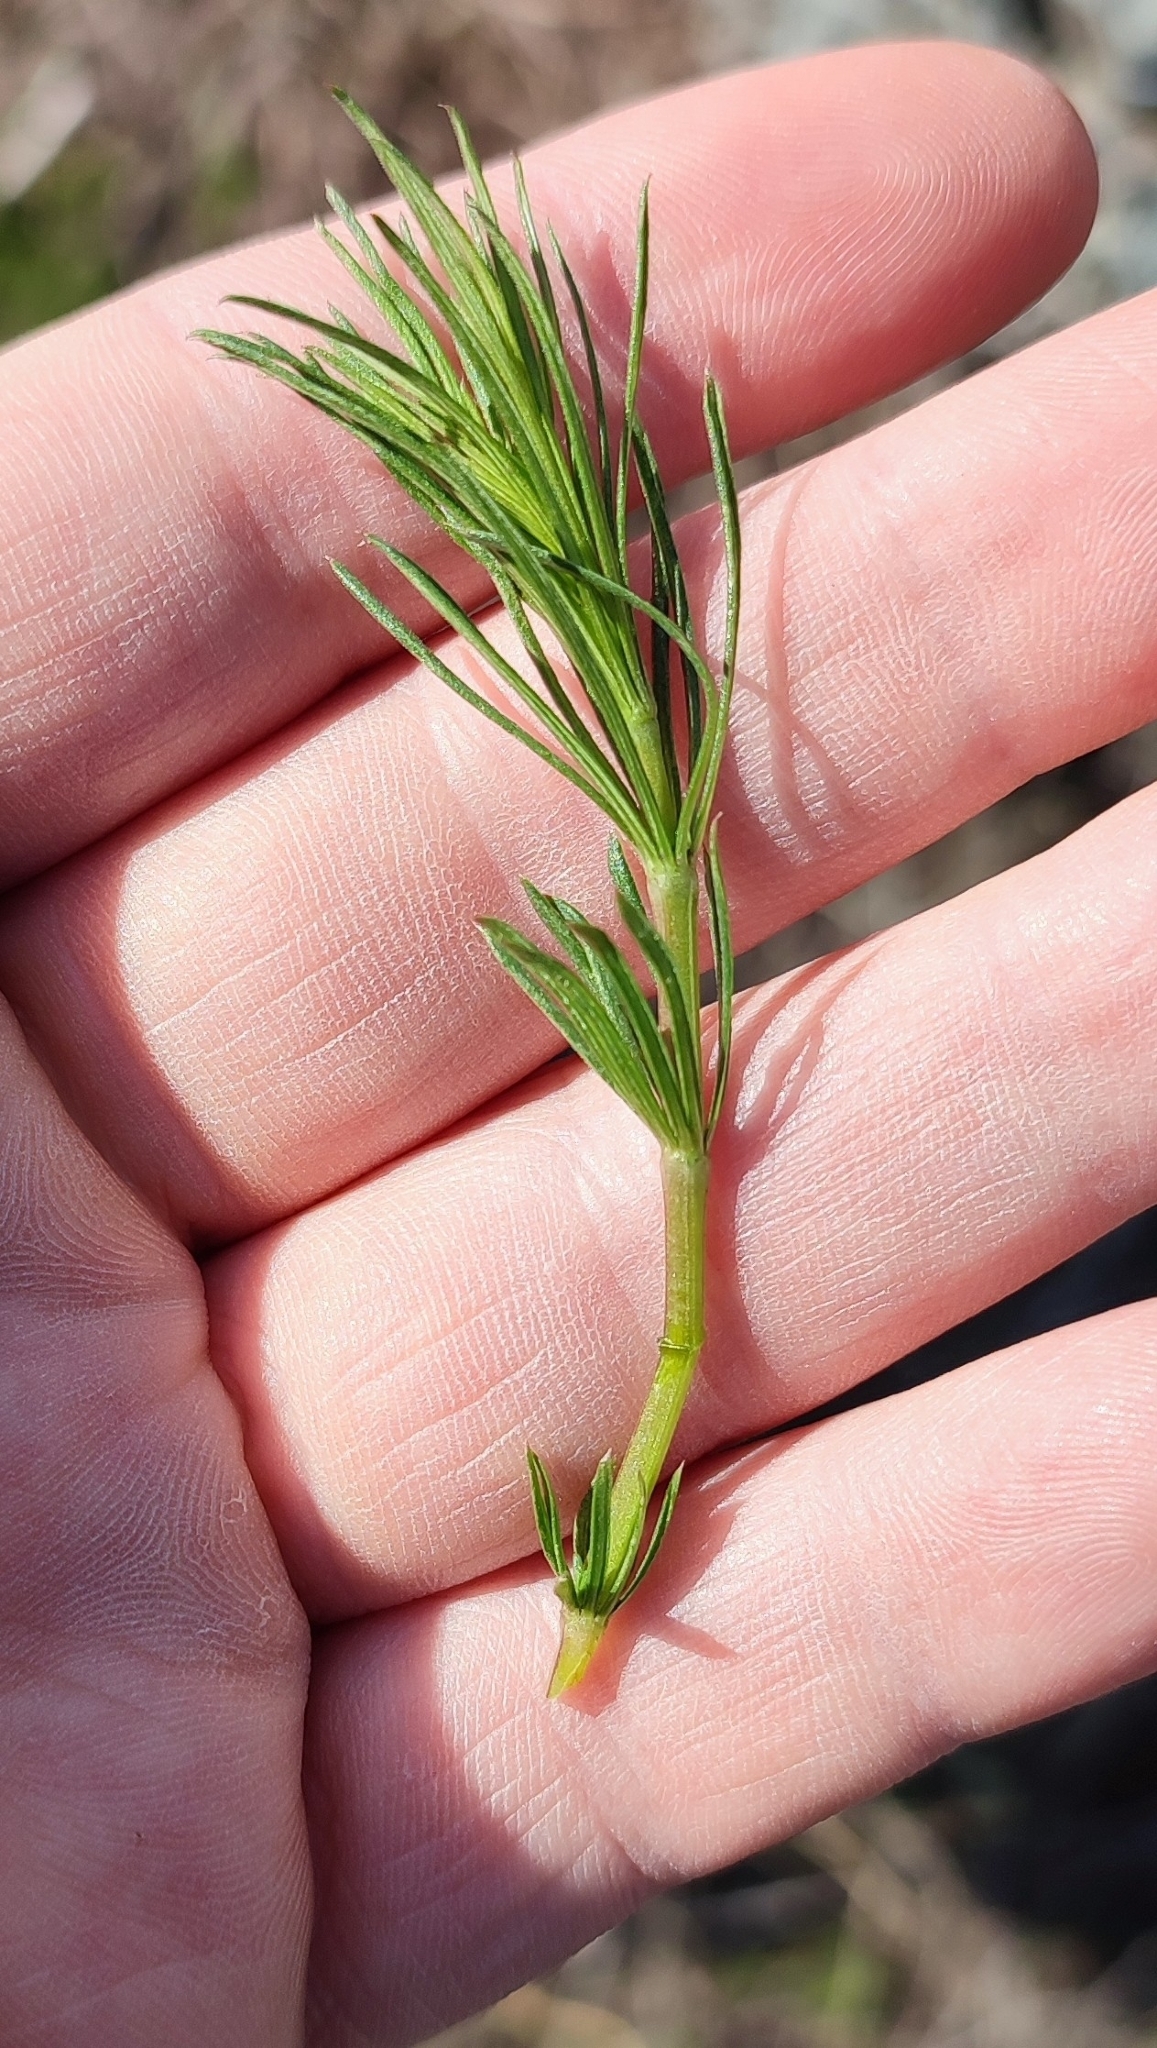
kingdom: Plantae
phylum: Tracheophyta
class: Magnoliopsida
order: Gentianales
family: Rubiaceae
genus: Galium
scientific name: Galium verum
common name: Lady's bedstraw
